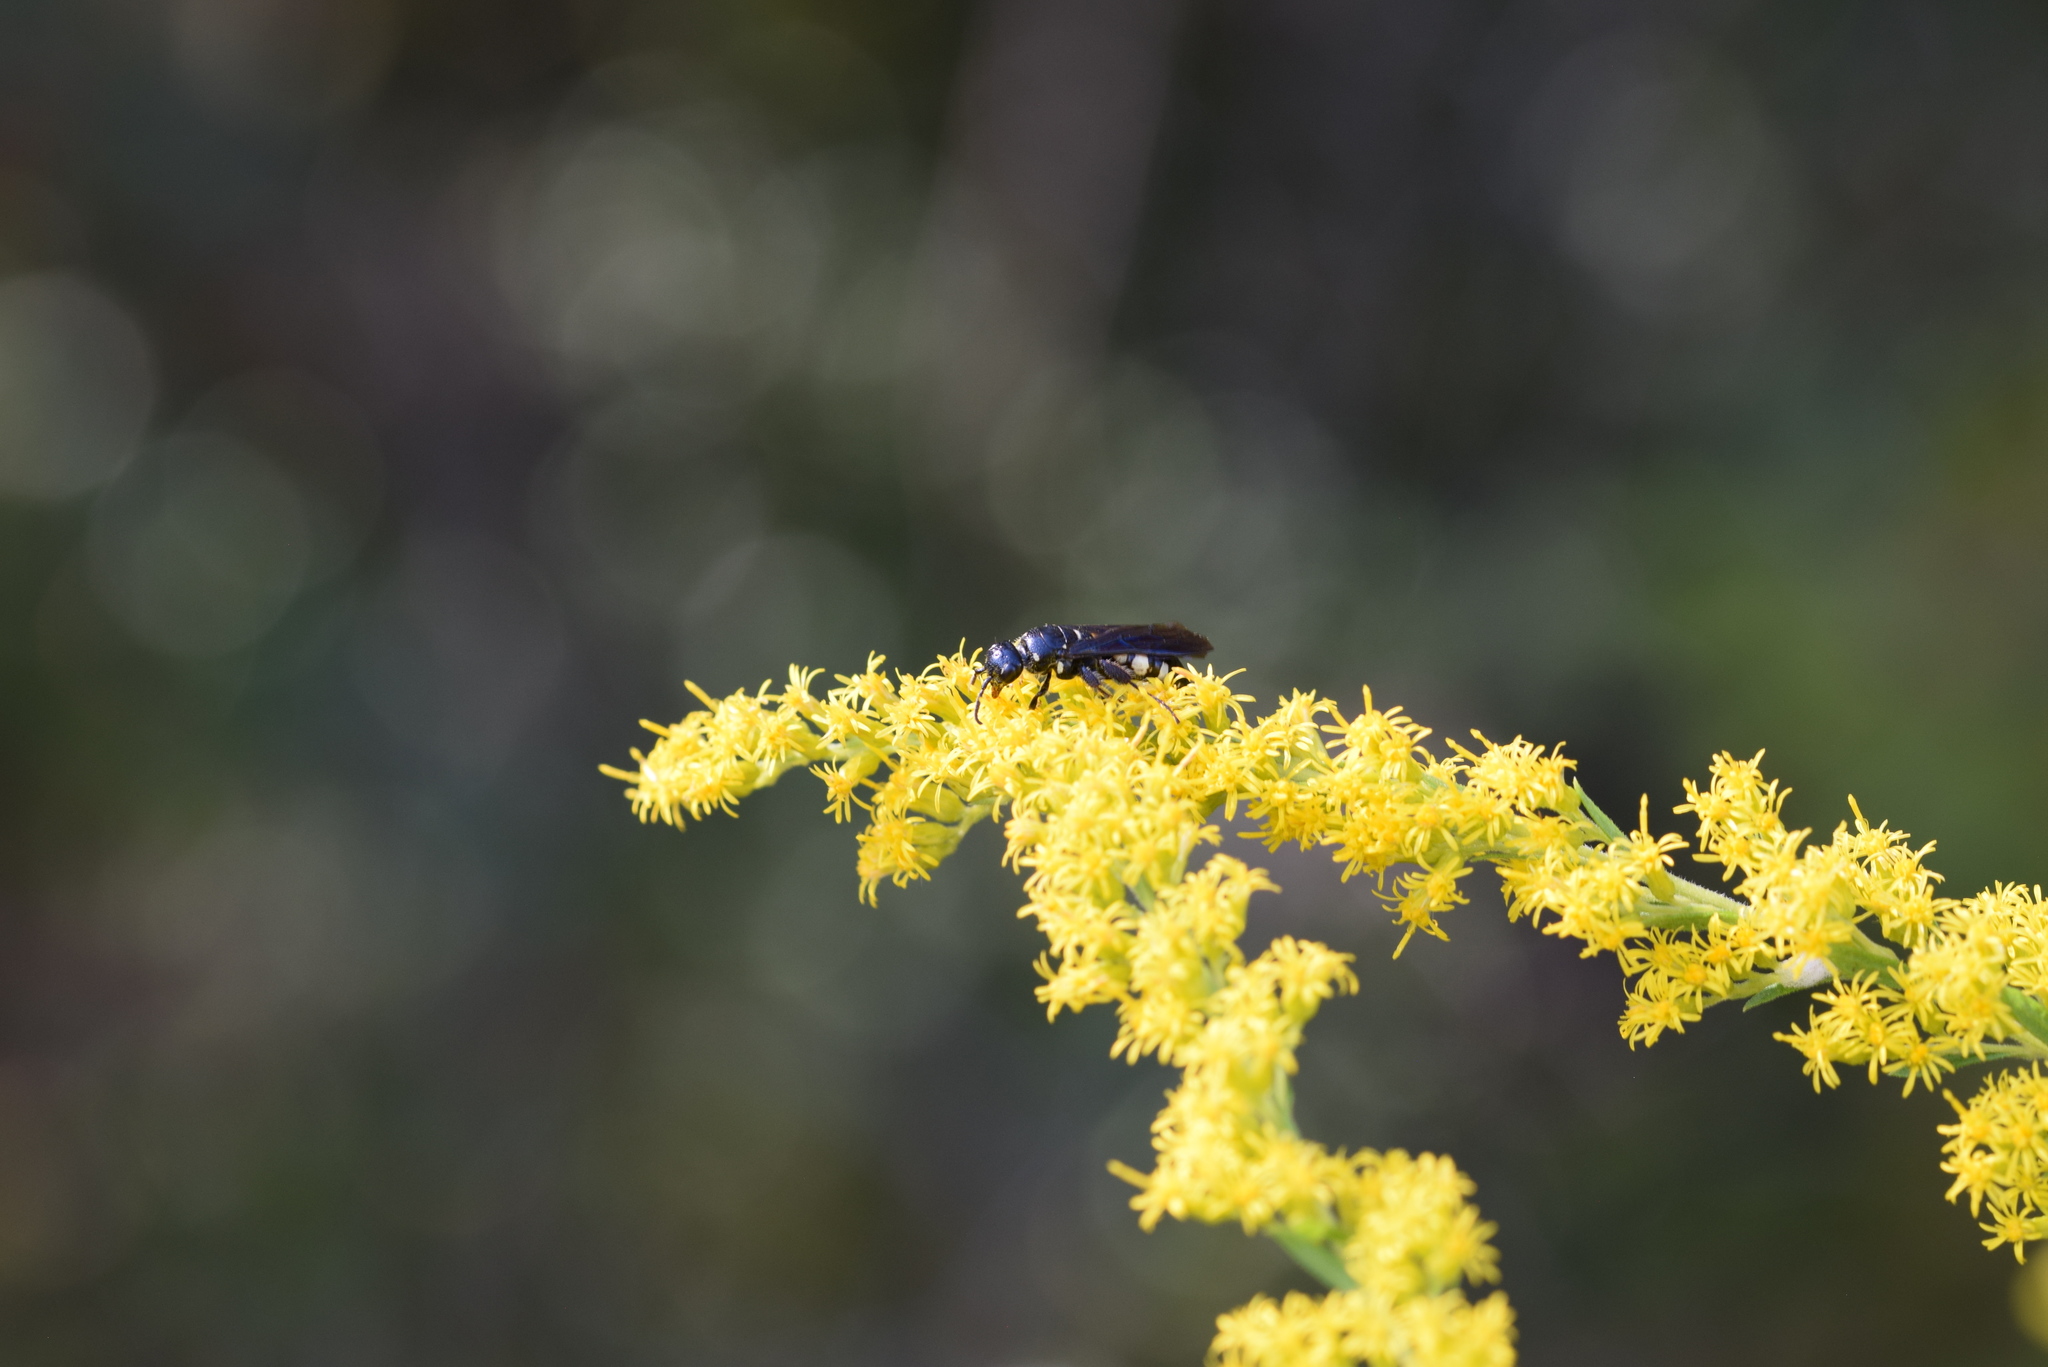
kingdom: Animalia
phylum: Arthropoda
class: Insecta
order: Hymenoptera
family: Tiphiidae
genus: Myzinum
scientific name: Myzinum obscurum
